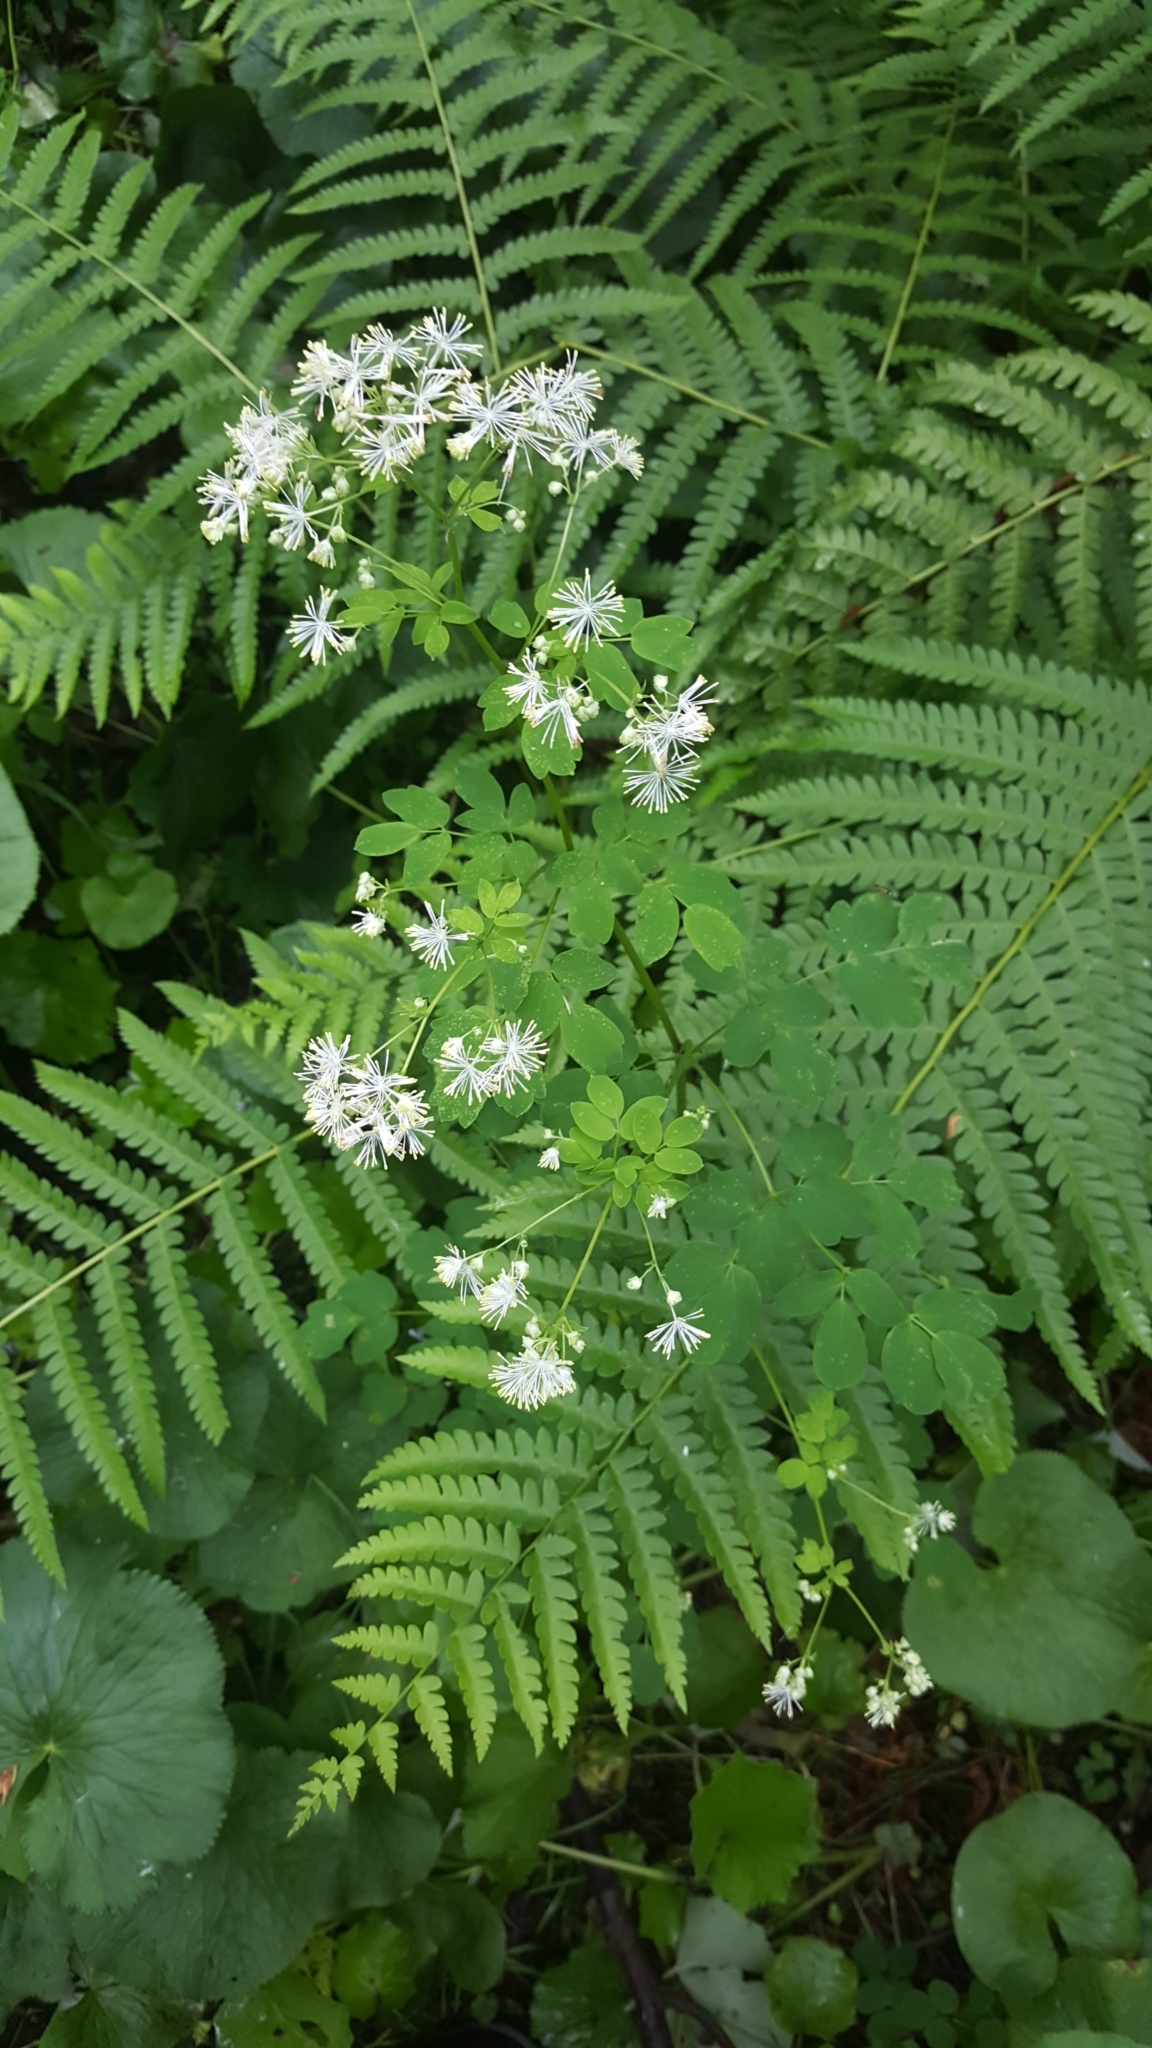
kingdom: Plantae
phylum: Tracheophyta
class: Magnoliopsida
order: Ranunculales
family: Ranunculaceae
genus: Thalictrum
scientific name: Thalictrum pubescens
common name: King-of-the-meadow
